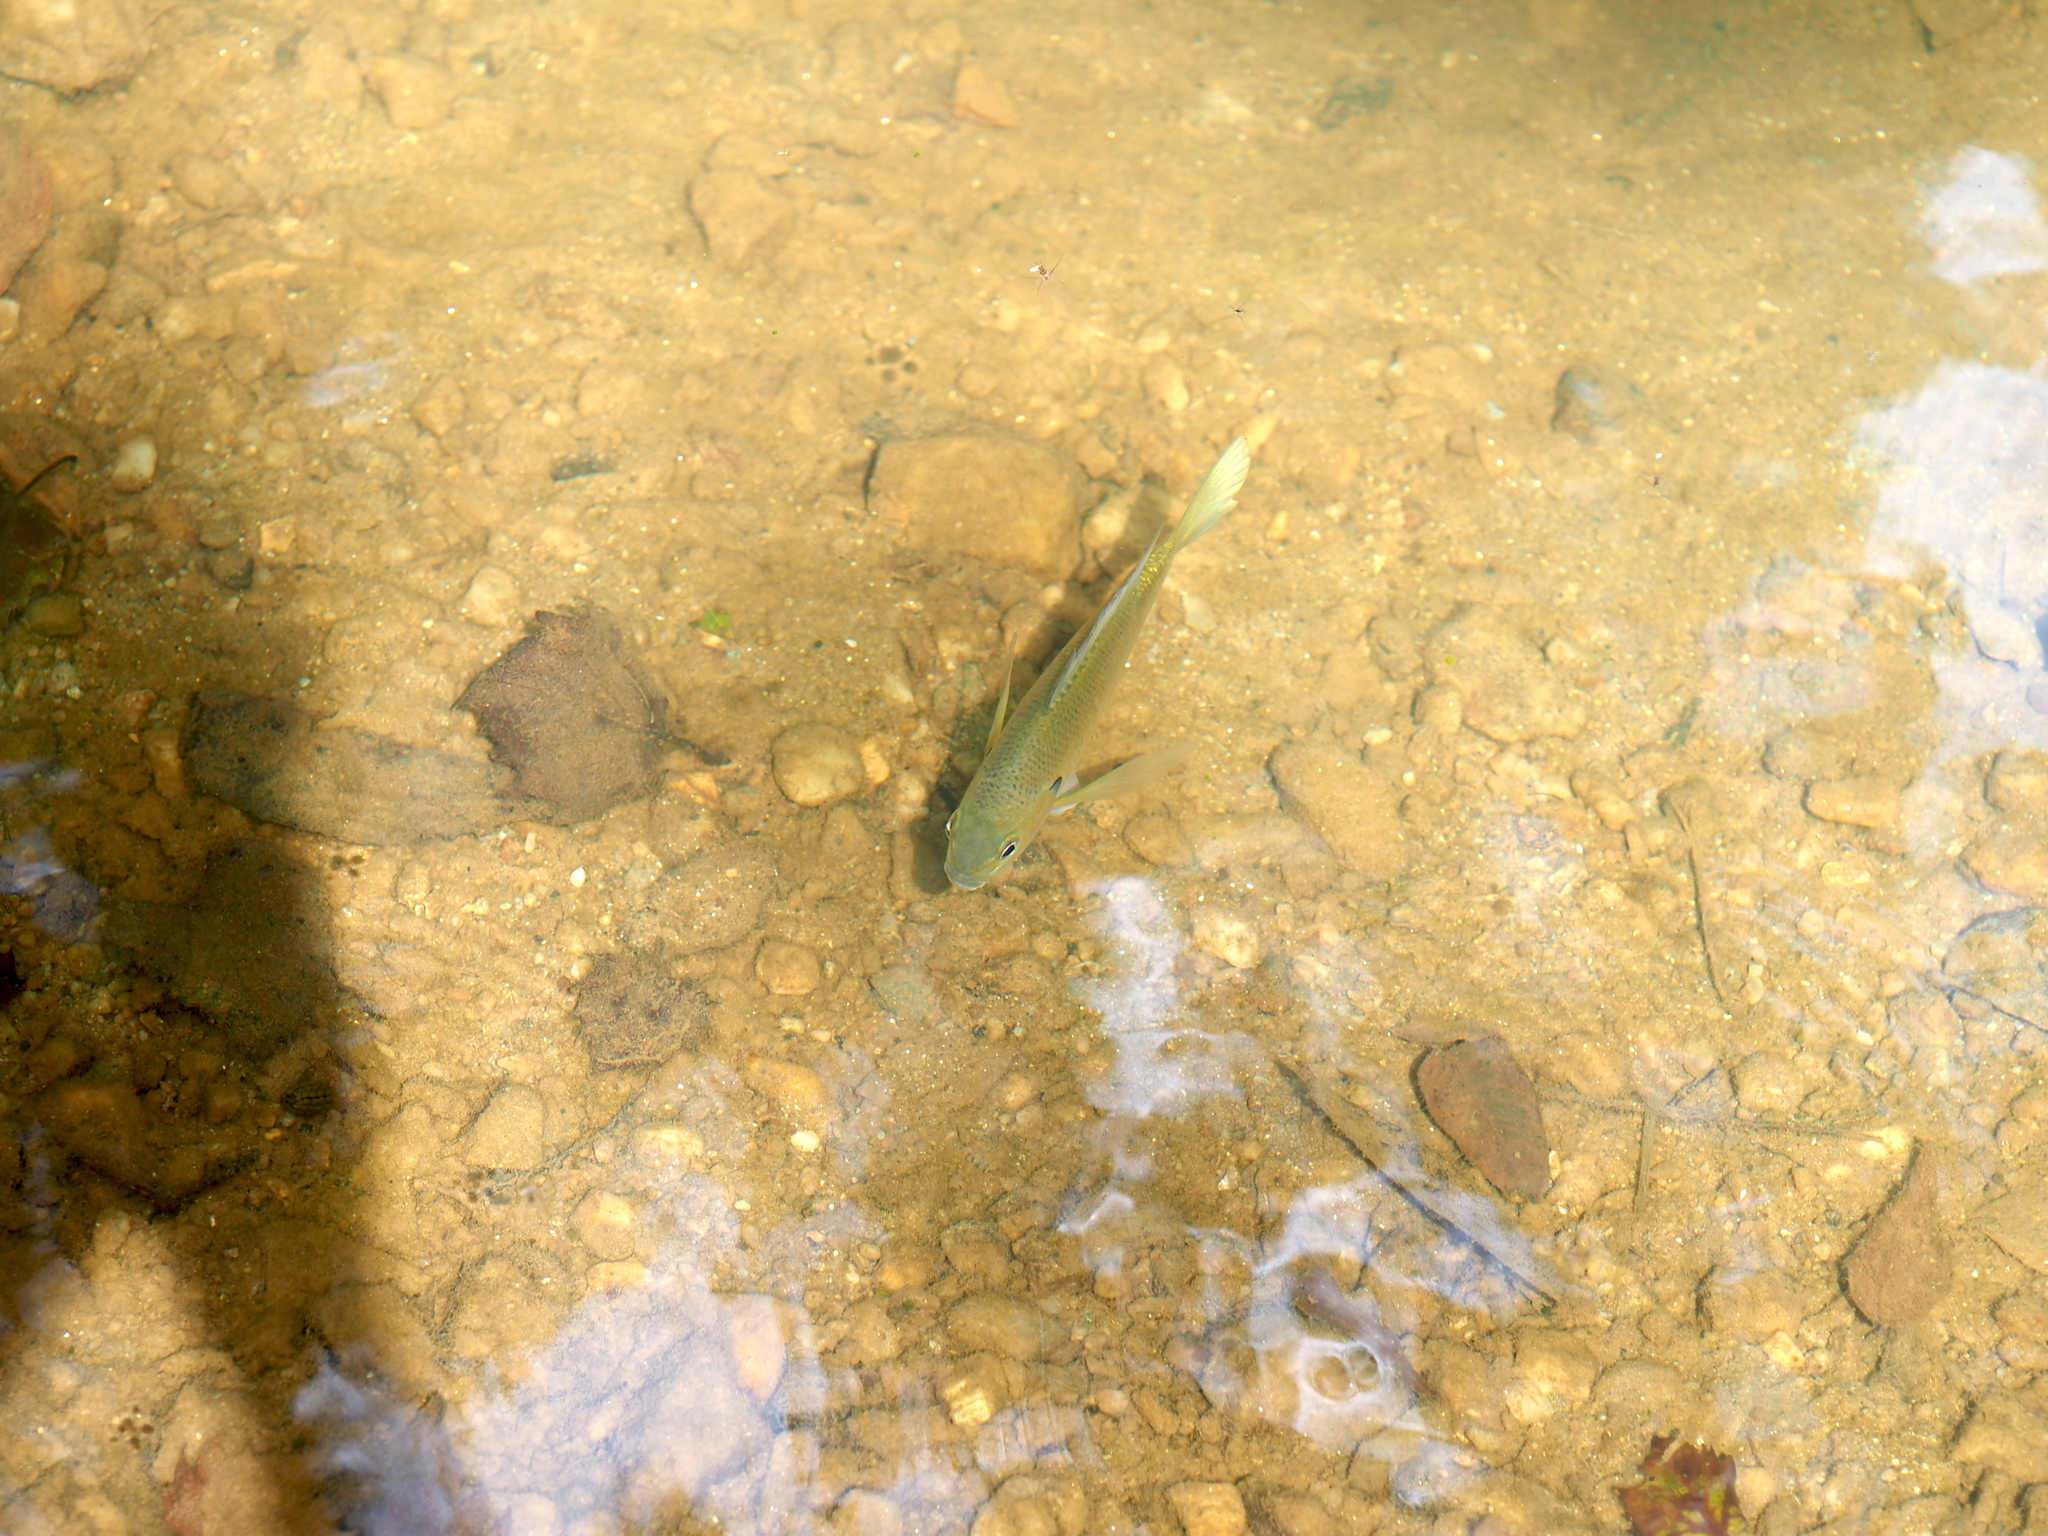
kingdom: Animalia
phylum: Chordata
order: Perciformes
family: Centrarchidae
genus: Lepomis
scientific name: Lepomis macrochirus
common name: Bluegill
